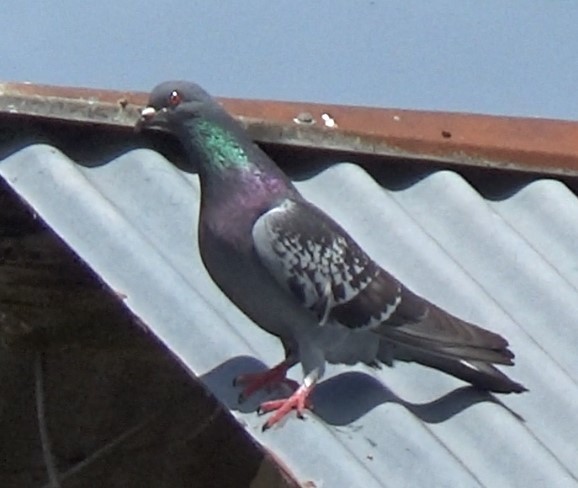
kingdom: Animalia
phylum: Chordata
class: Aves
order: Columbiformes
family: Columbidae
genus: Columba
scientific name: Columba livia
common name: Rock pigeon
